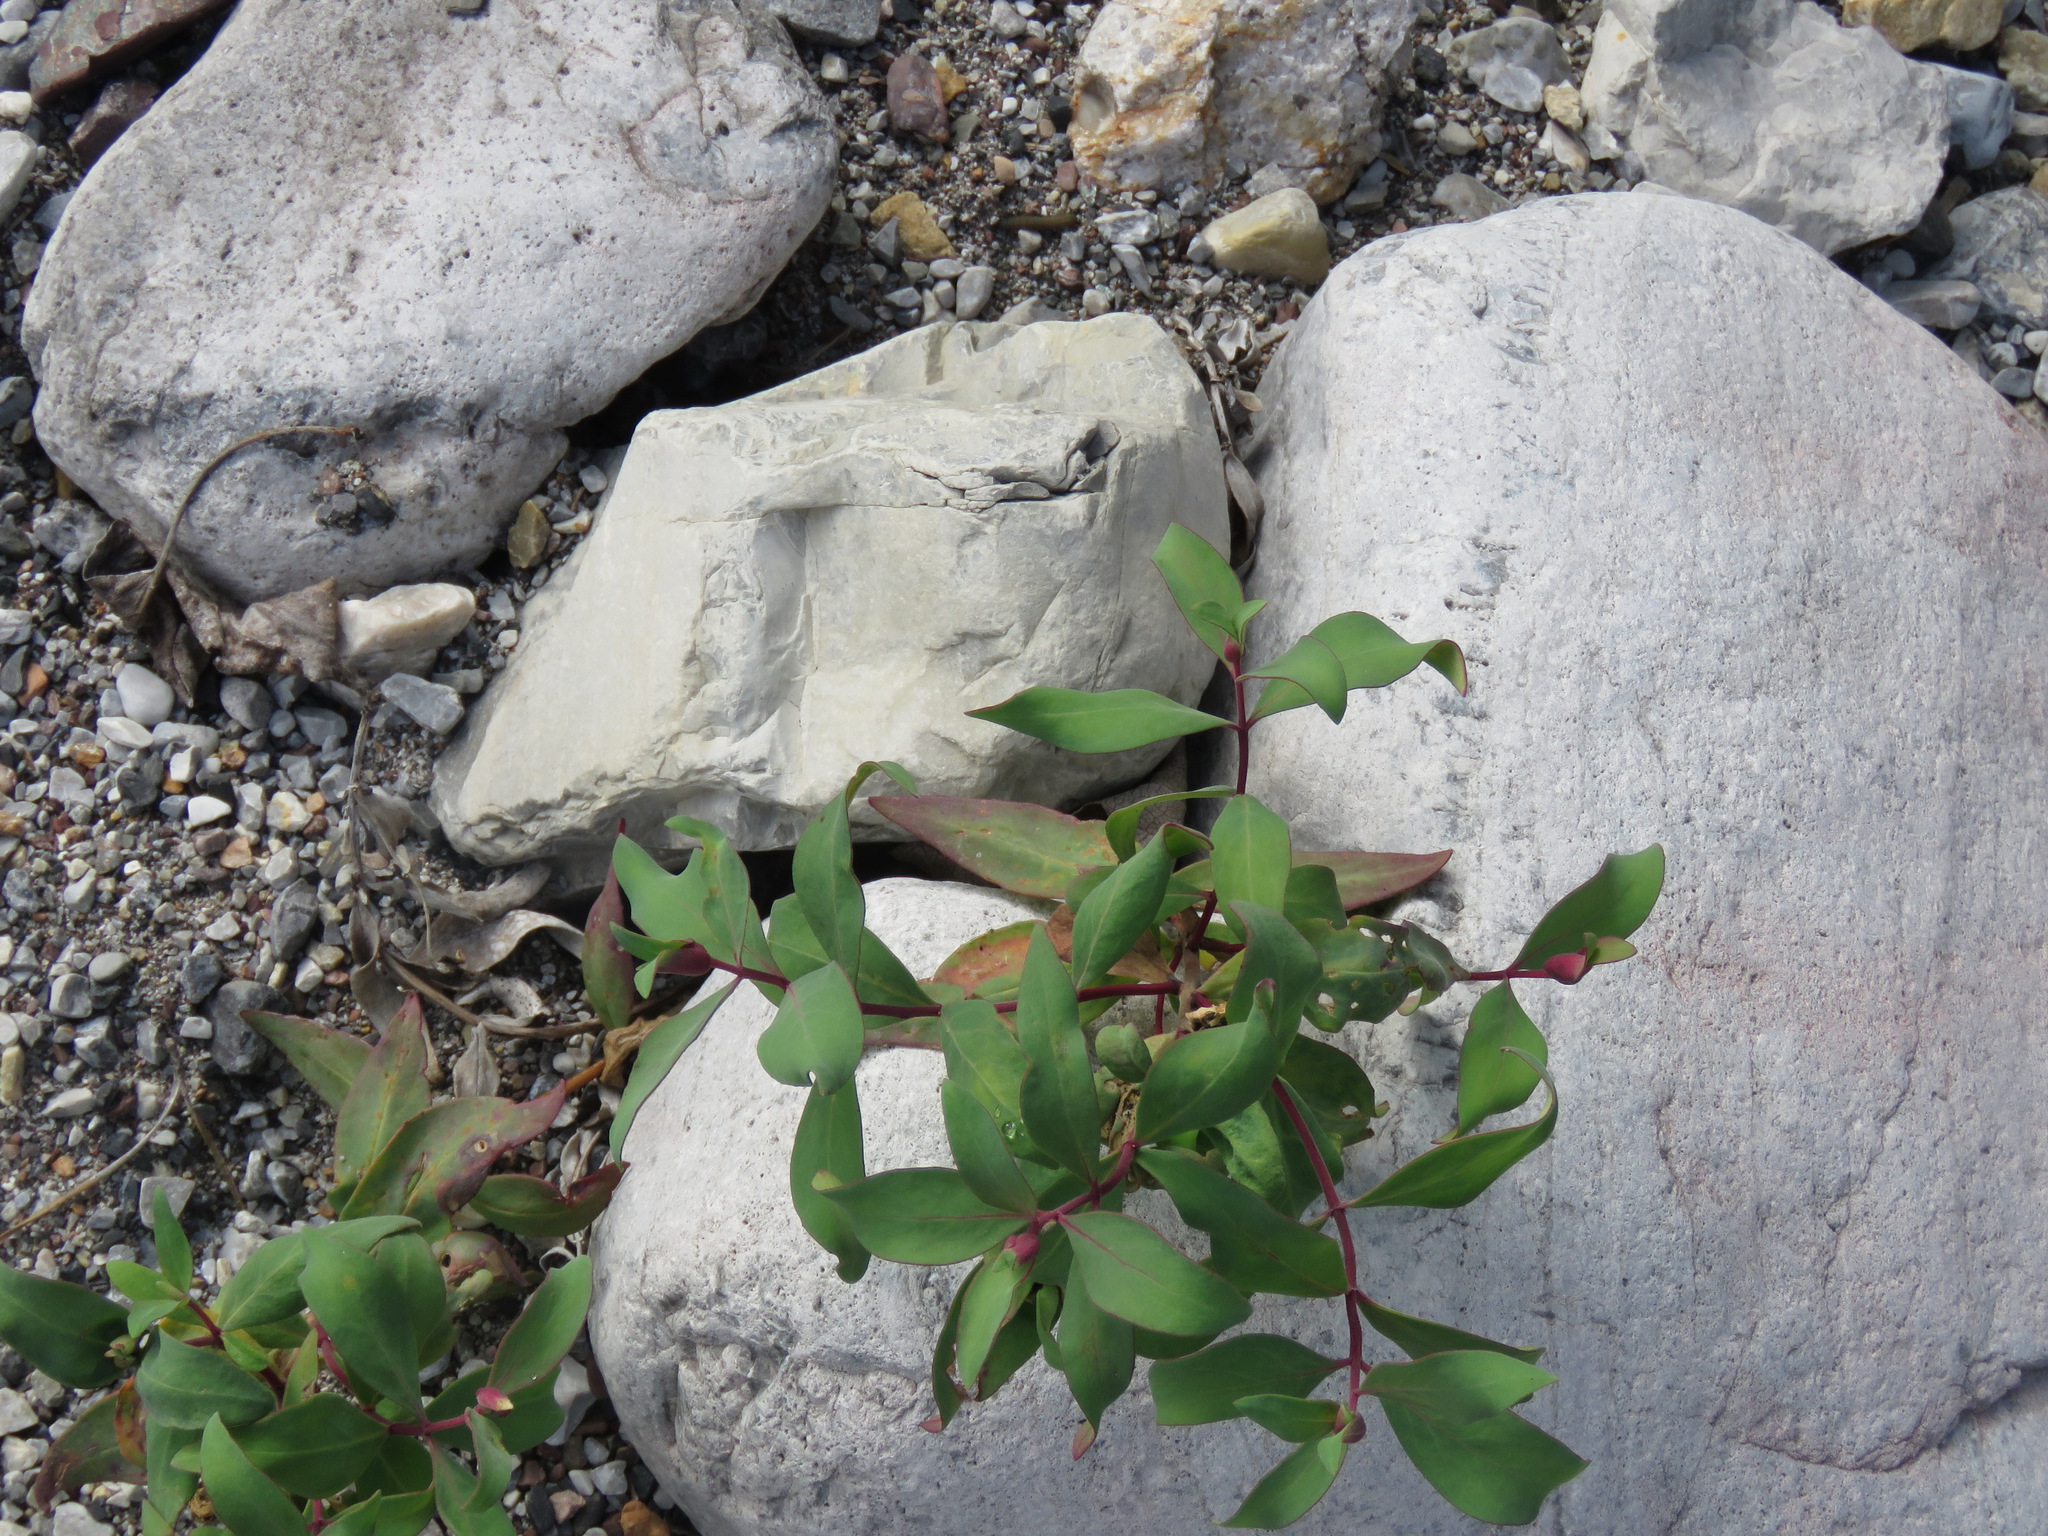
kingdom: Plantae
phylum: Tracheophyta
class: Magnoliopsida
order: Myrtales
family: Onagraceae
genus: Chamaenerion
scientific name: Chamaenerion latifolium
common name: Dwarf fireweed
